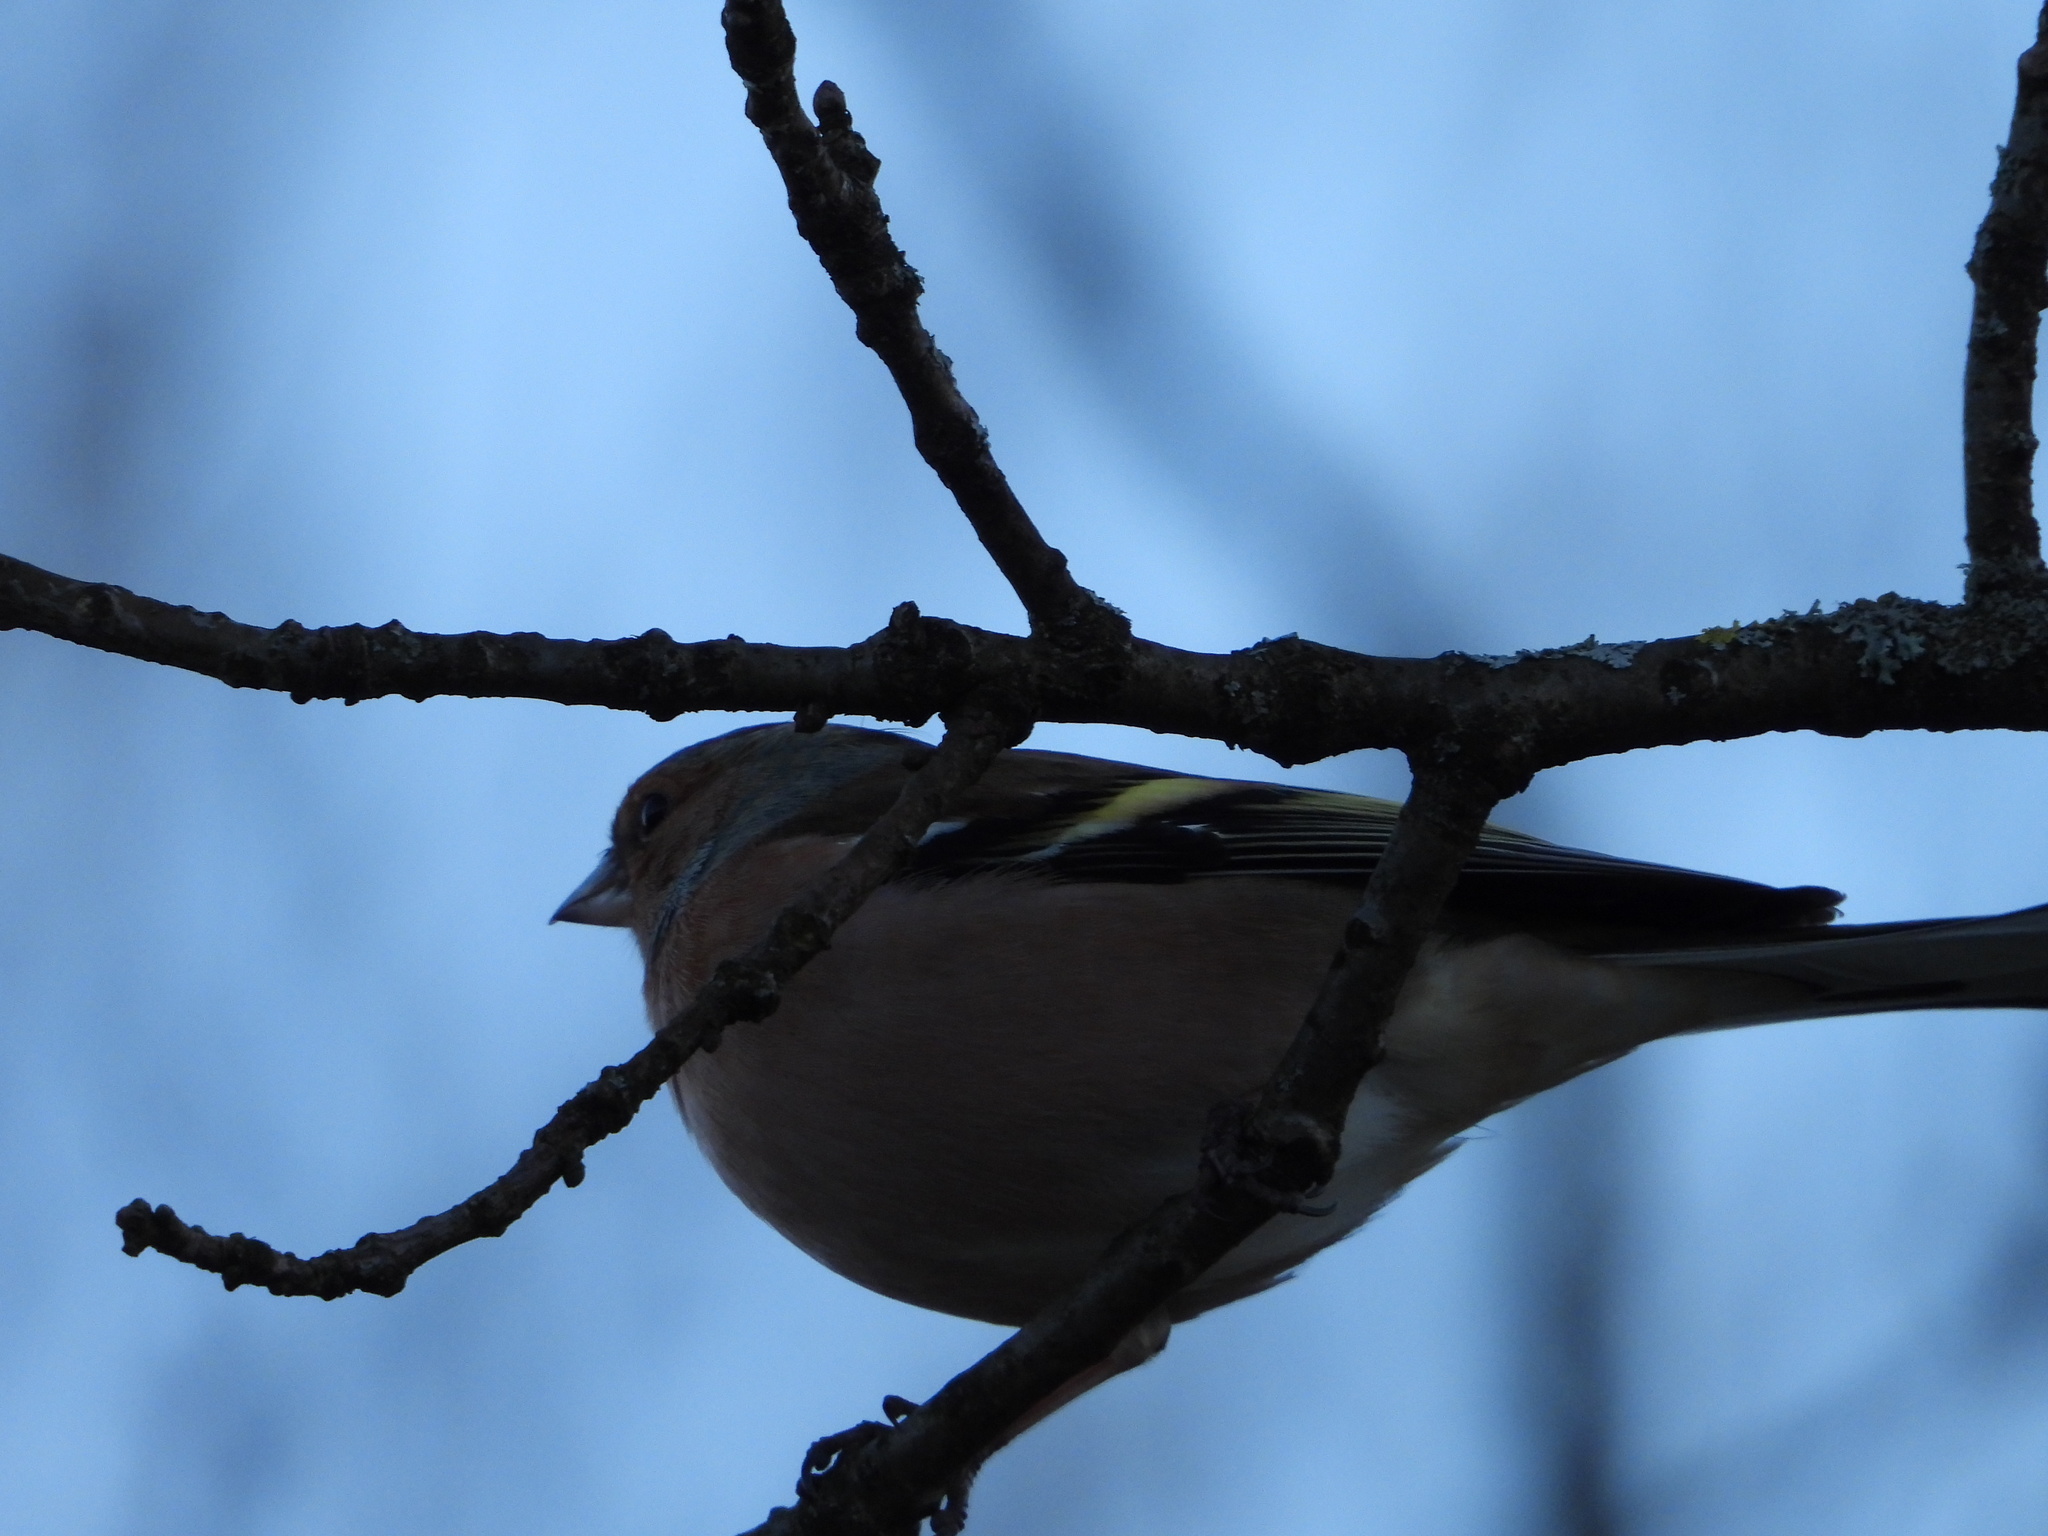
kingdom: Animalia
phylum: Chordata
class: Aves
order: Passeriformes
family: Fringillidae
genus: Fringilla
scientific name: Fringilla coelebs
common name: Common chaffinch
